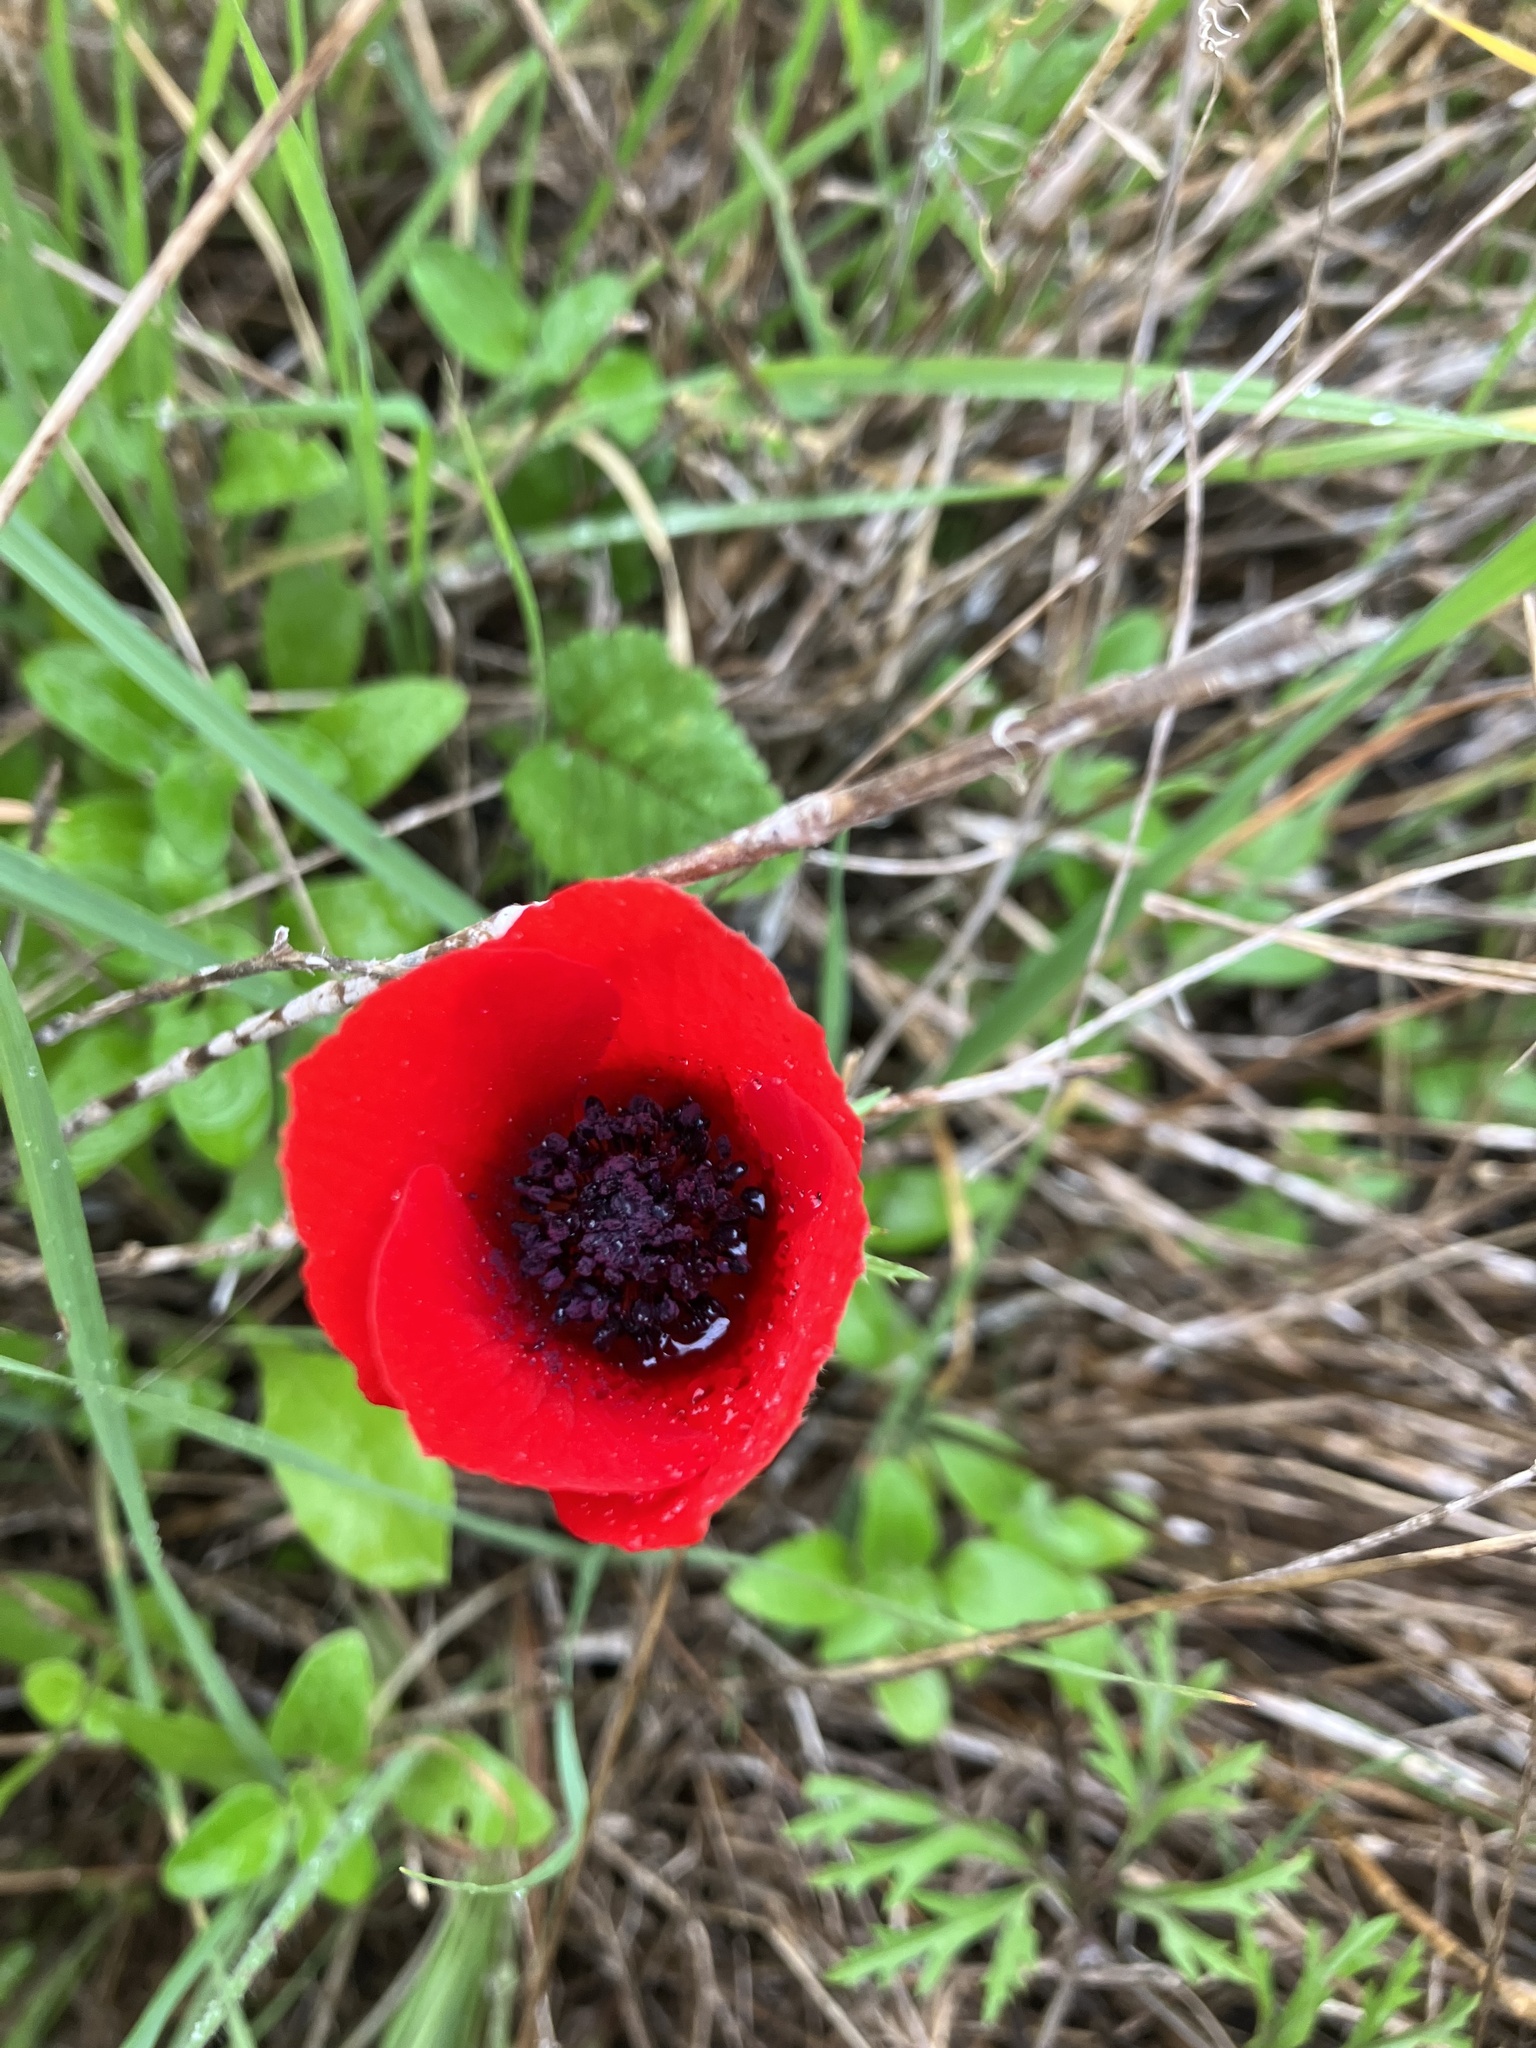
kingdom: Plantae
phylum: Tracheophyta
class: Magnoliopsida
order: Ranunculales
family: Ranunculaceae
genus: Anemone
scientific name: Anemone coronaria
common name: Poppy anemone
